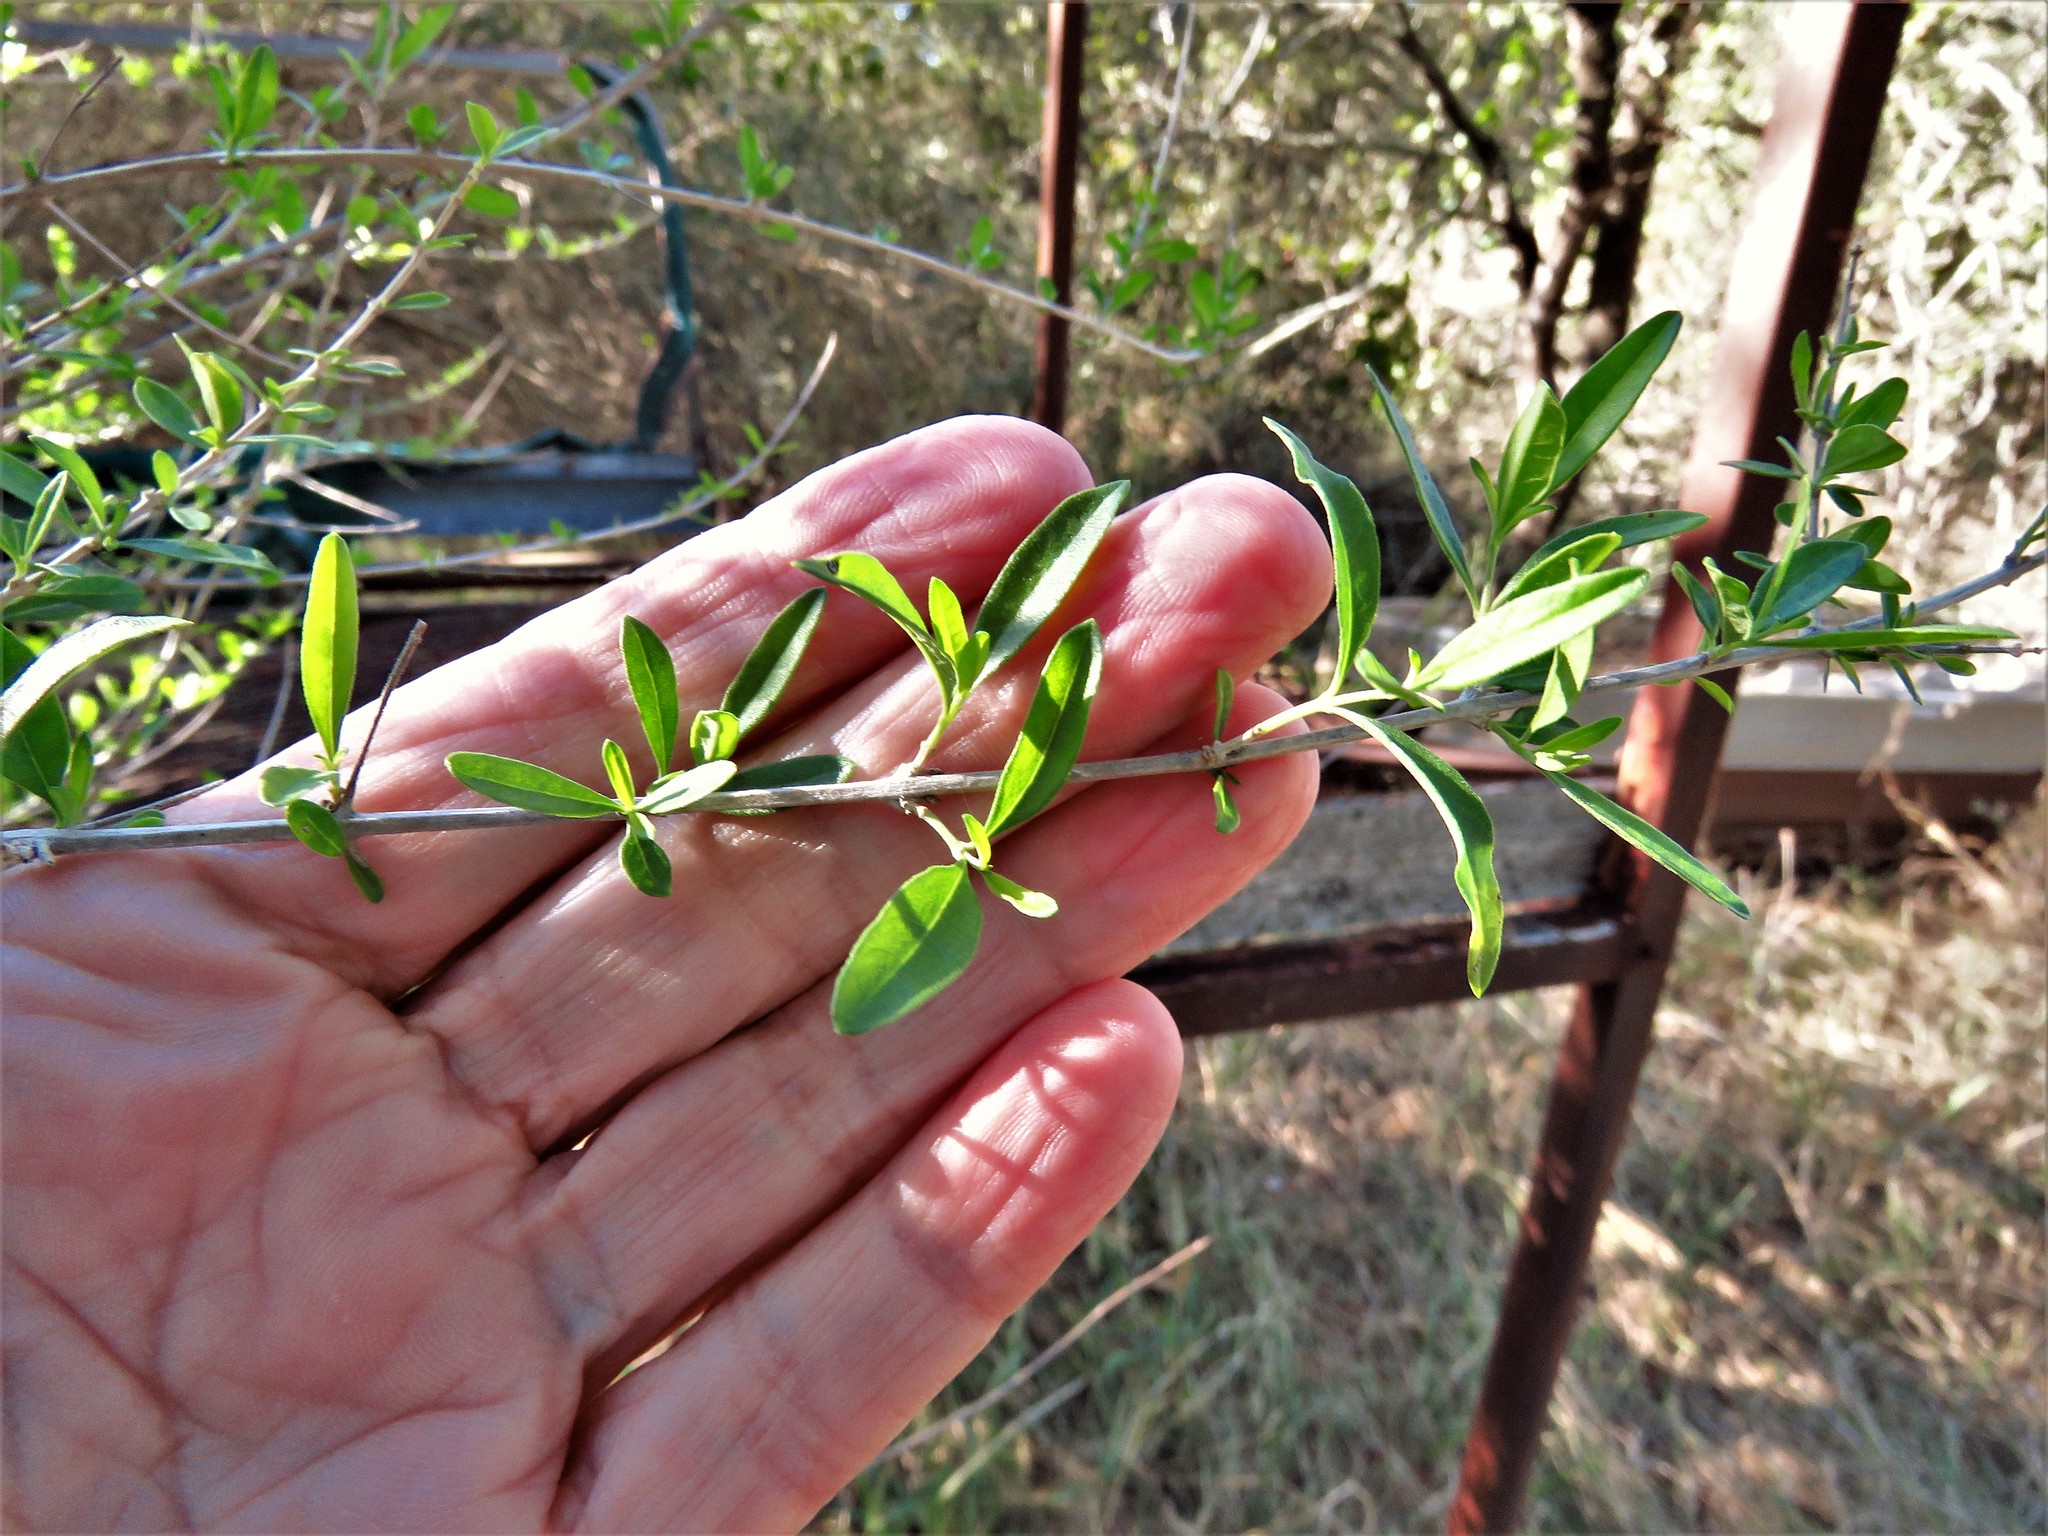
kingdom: Plantae
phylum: Tracheophyta
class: Magnoliopsida
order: Lamiales
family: Verbenaceae
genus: Aloysia
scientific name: Aloysia gratissima
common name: Common bee-brush
